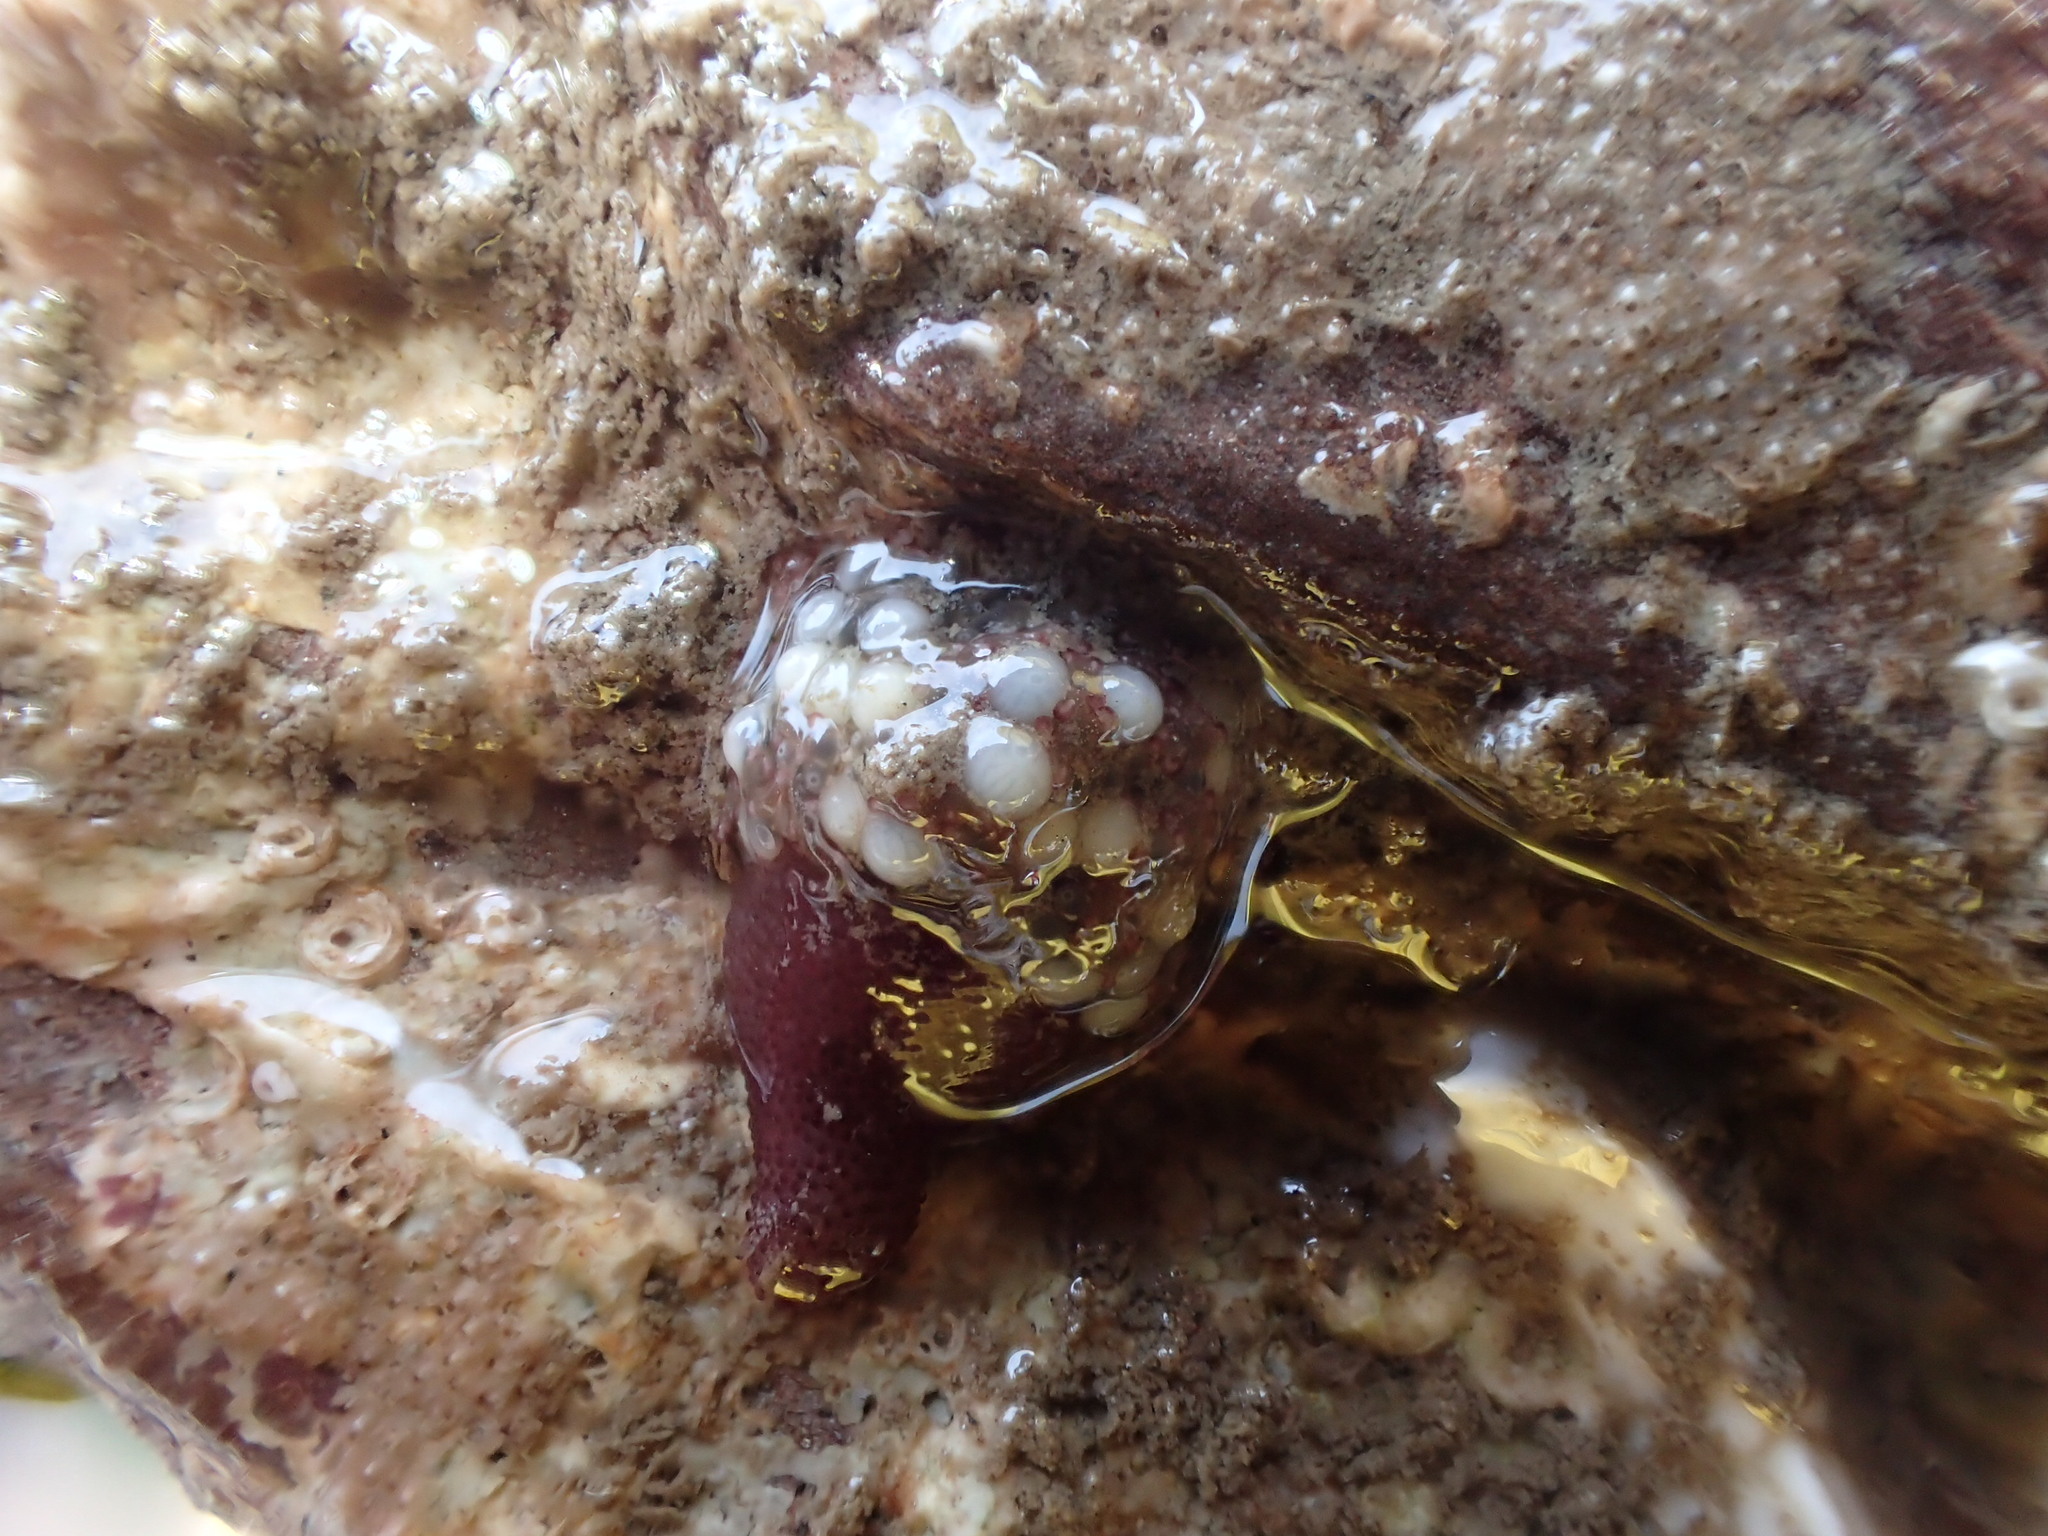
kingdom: Animalia
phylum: Cnidaria
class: Hydrozoa
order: Anthoathecata
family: Candelabridae
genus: Candelabrum
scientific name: Candelabrum cocksii
